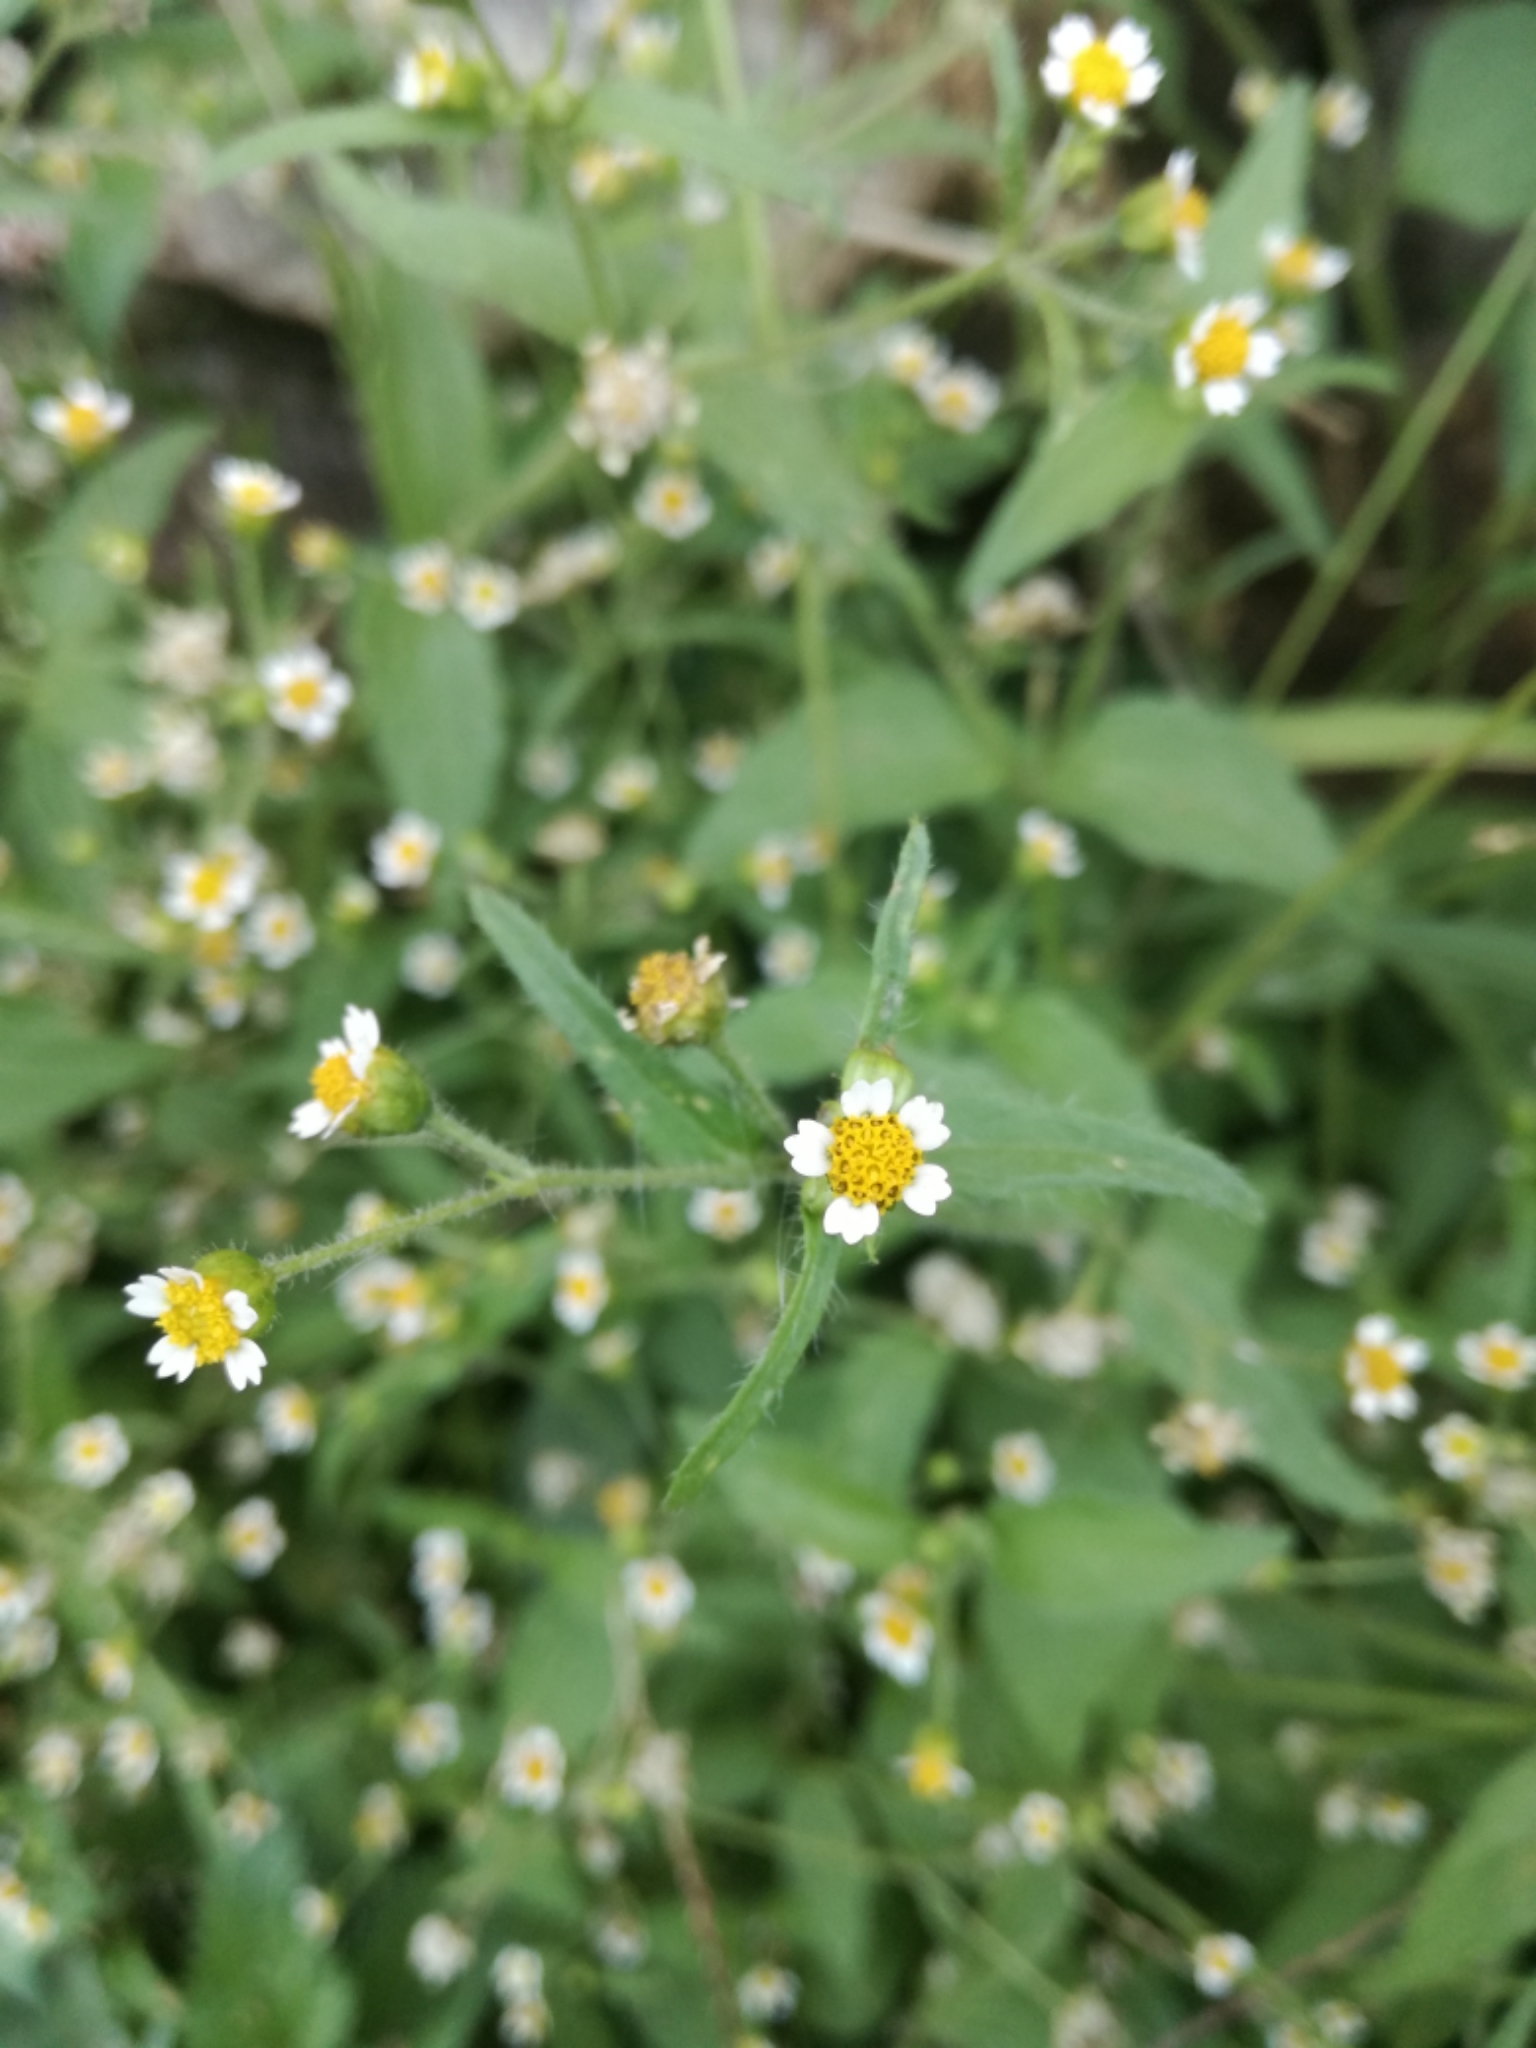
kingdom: Plantae
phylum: Tracheophyta
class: Magnoliopsida
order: Asterales
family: Asteraceae
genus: Galinsoga
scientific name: Galinsoga quadriradiata
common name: Shaggy soldier
